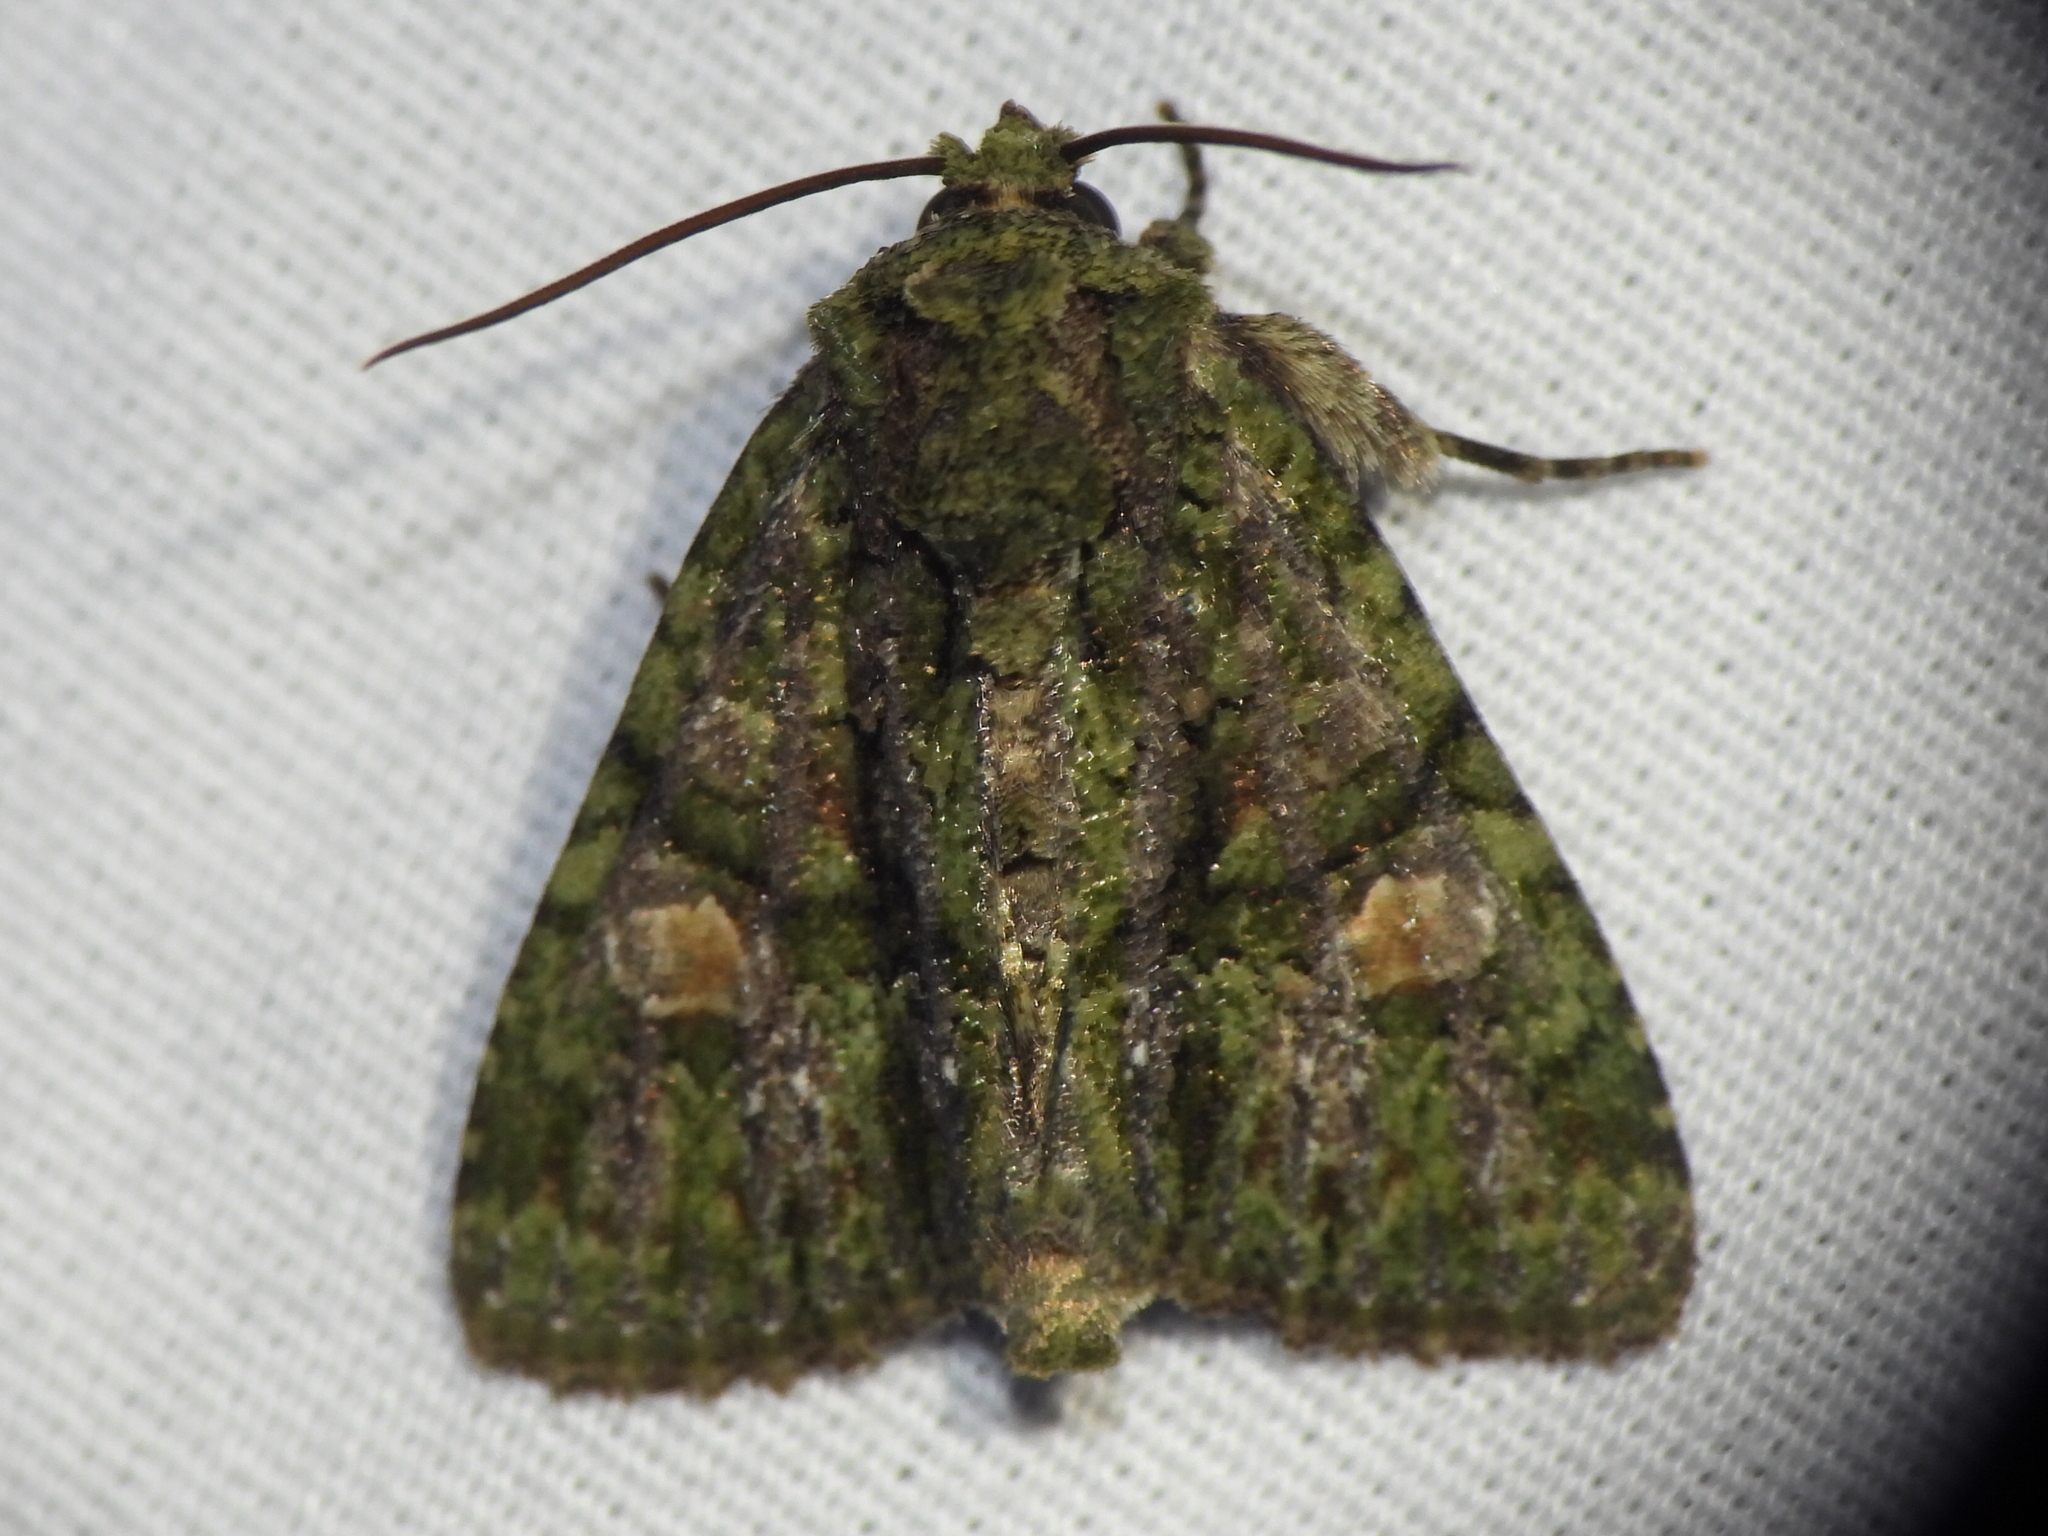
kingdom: Animalia
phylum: Arthropoda
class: Insecta
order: Lepidoptera
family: Noctuidae
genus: Phosphila
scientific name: Phosphila miselioides
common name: Spotted phosphila moth
